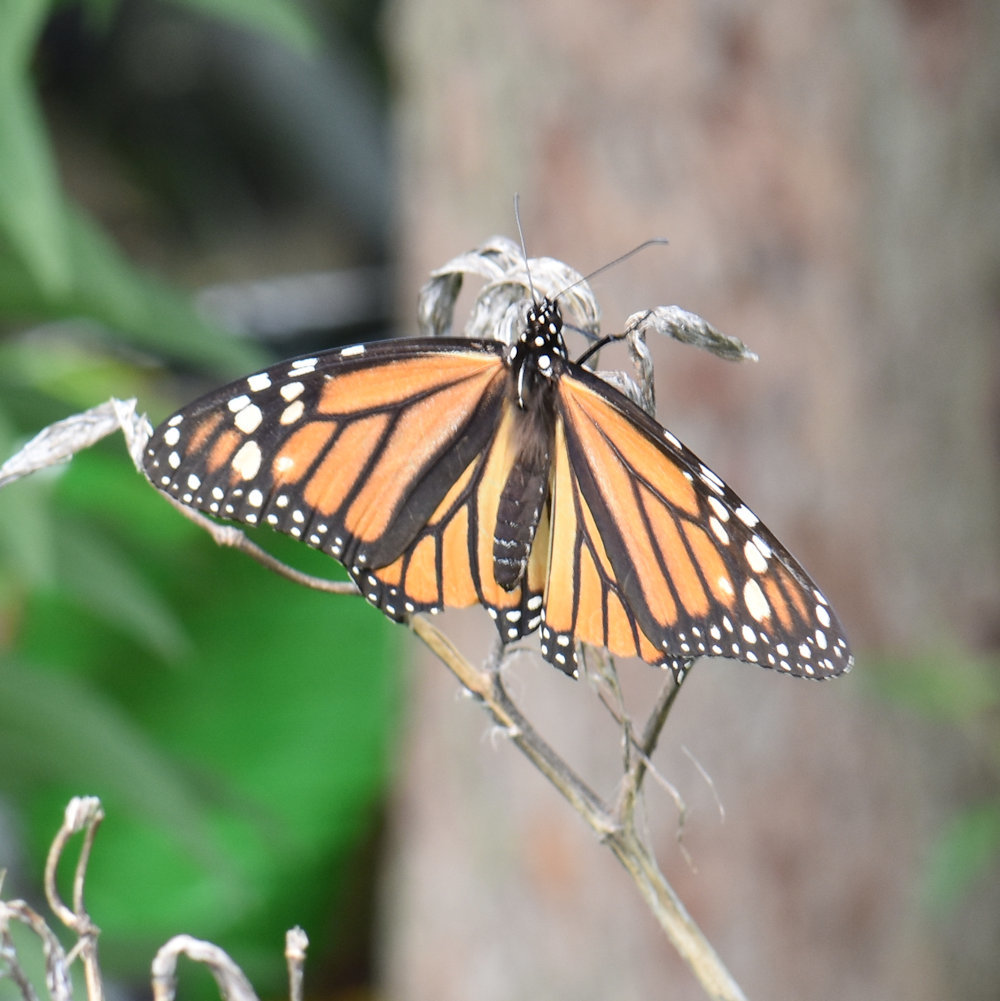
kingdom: Animalia
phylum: Arthropoda
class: Insecta
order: Lepidoptera
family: Nymphalidae
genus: Danaus
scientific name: Danaus plexippus
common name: Monarch
